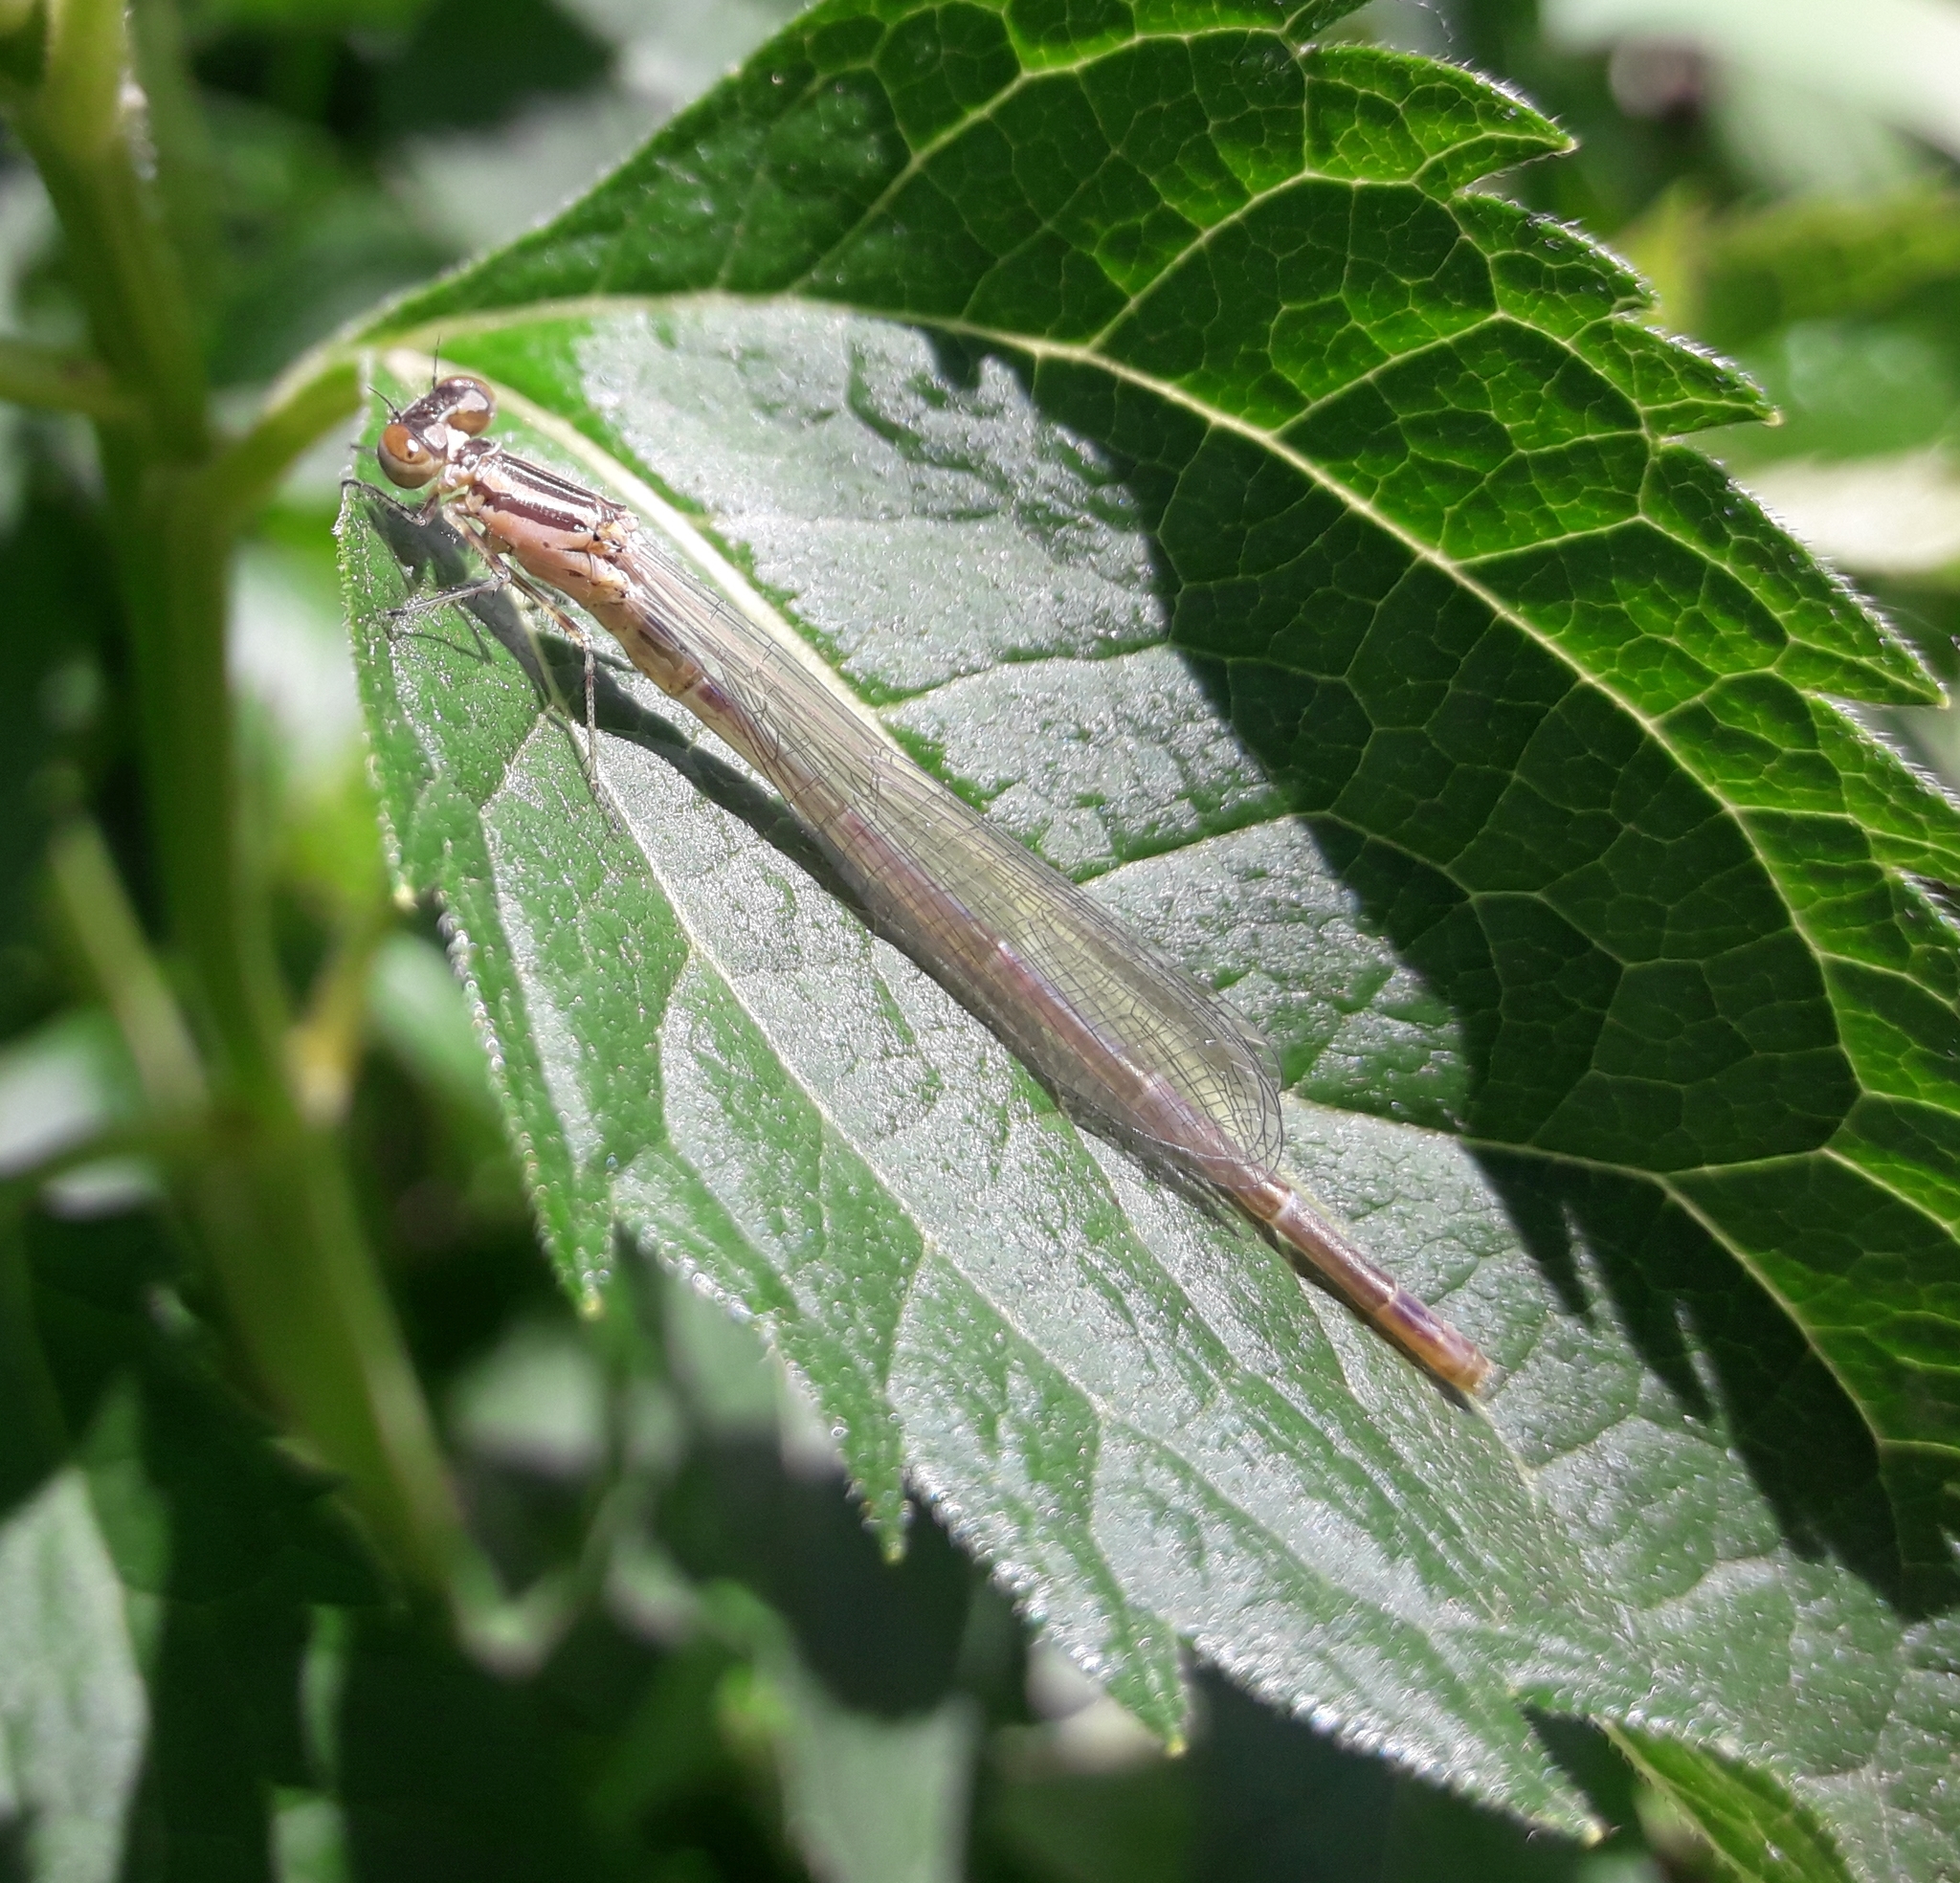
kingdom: Animalia
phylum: Arthropoda
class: Insecta
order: Odonata
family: Coenagrionidae
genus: Coenagrion
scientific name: Coenagrion puella
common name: Azure damselfly
